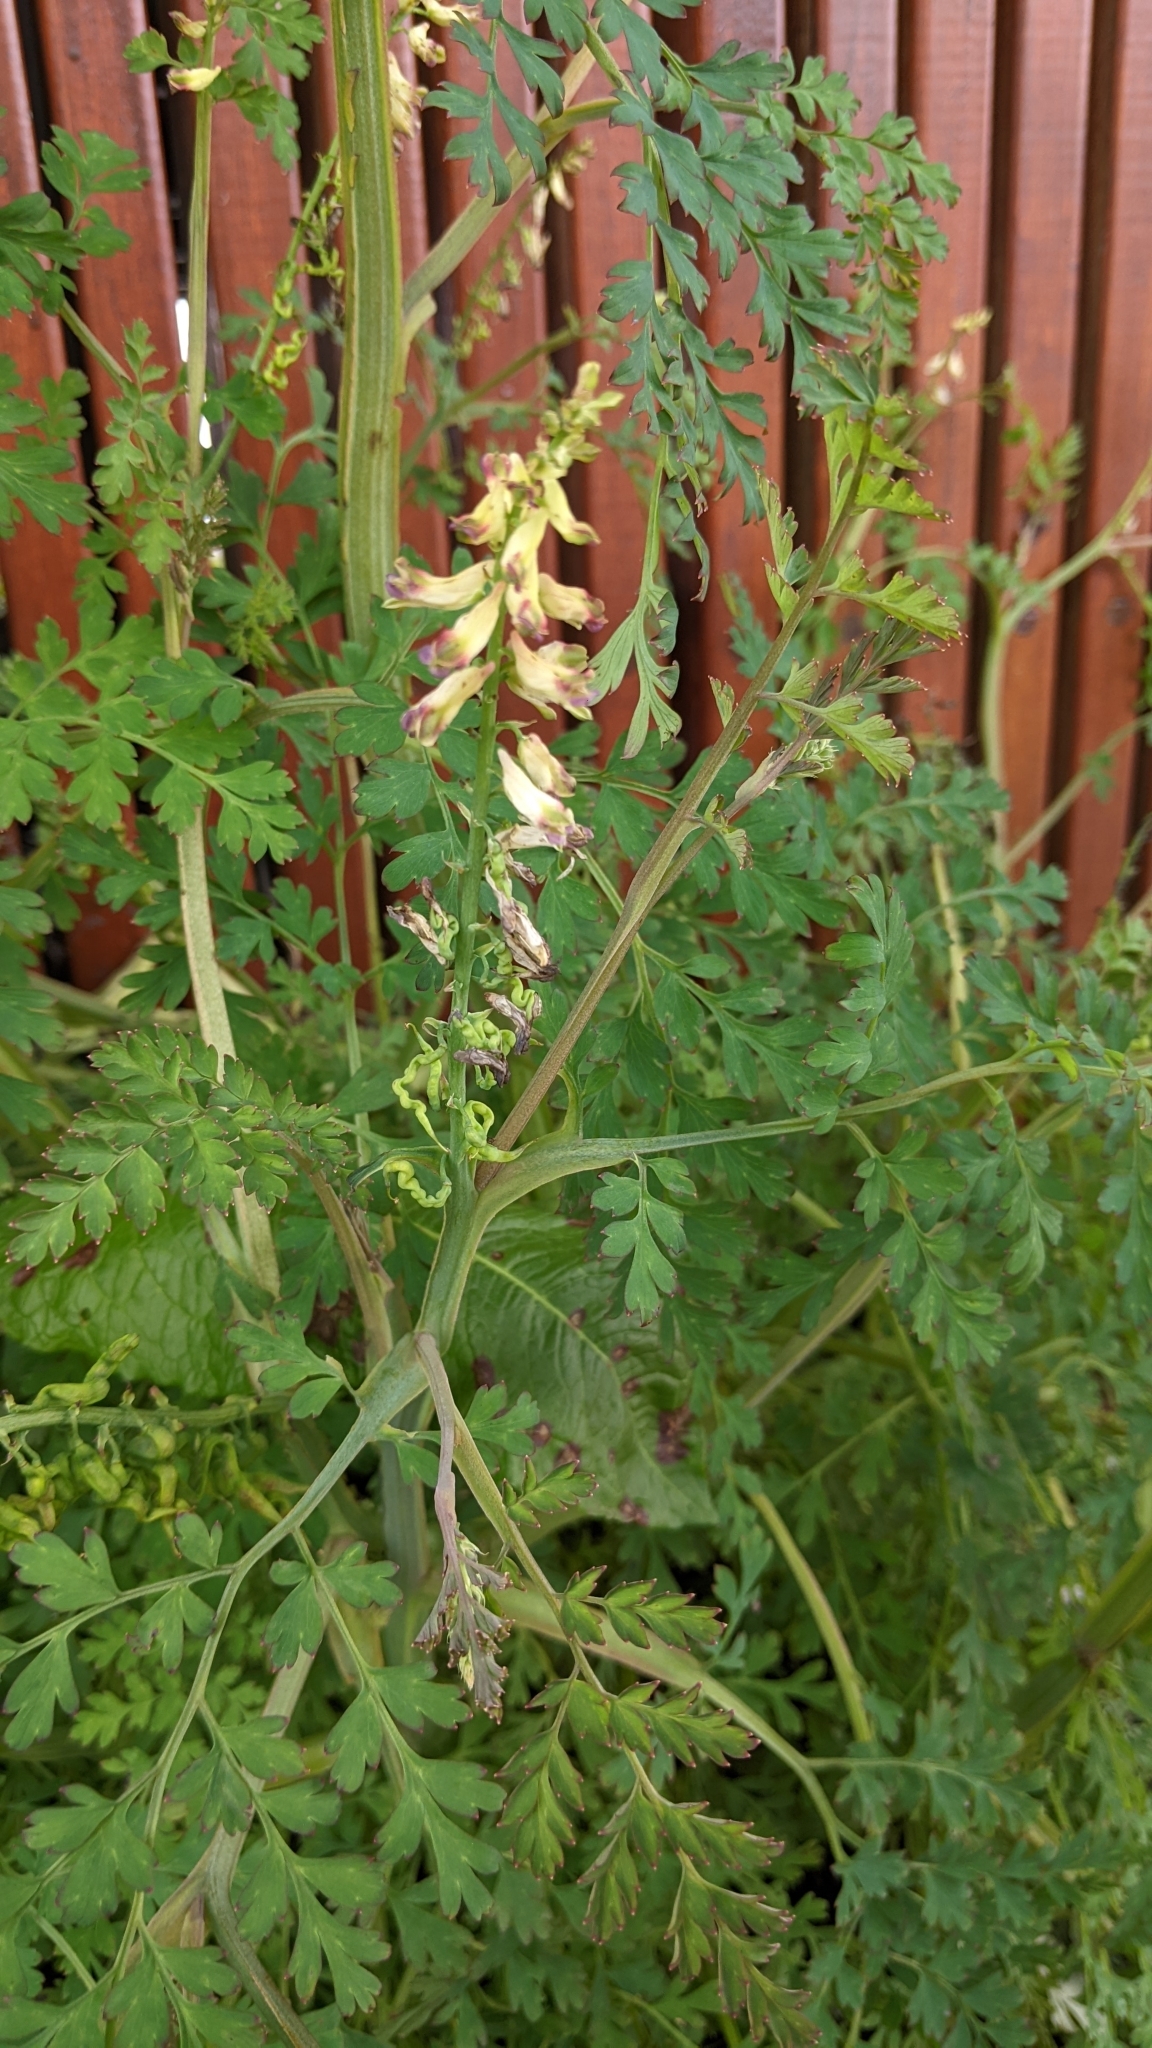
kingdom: Plantae
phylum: Tracheophyta
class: Magnoliopsida
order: Ranunculales
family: Papaveraceae
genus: Corydalis
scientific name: Corydalis ophiocarpa
